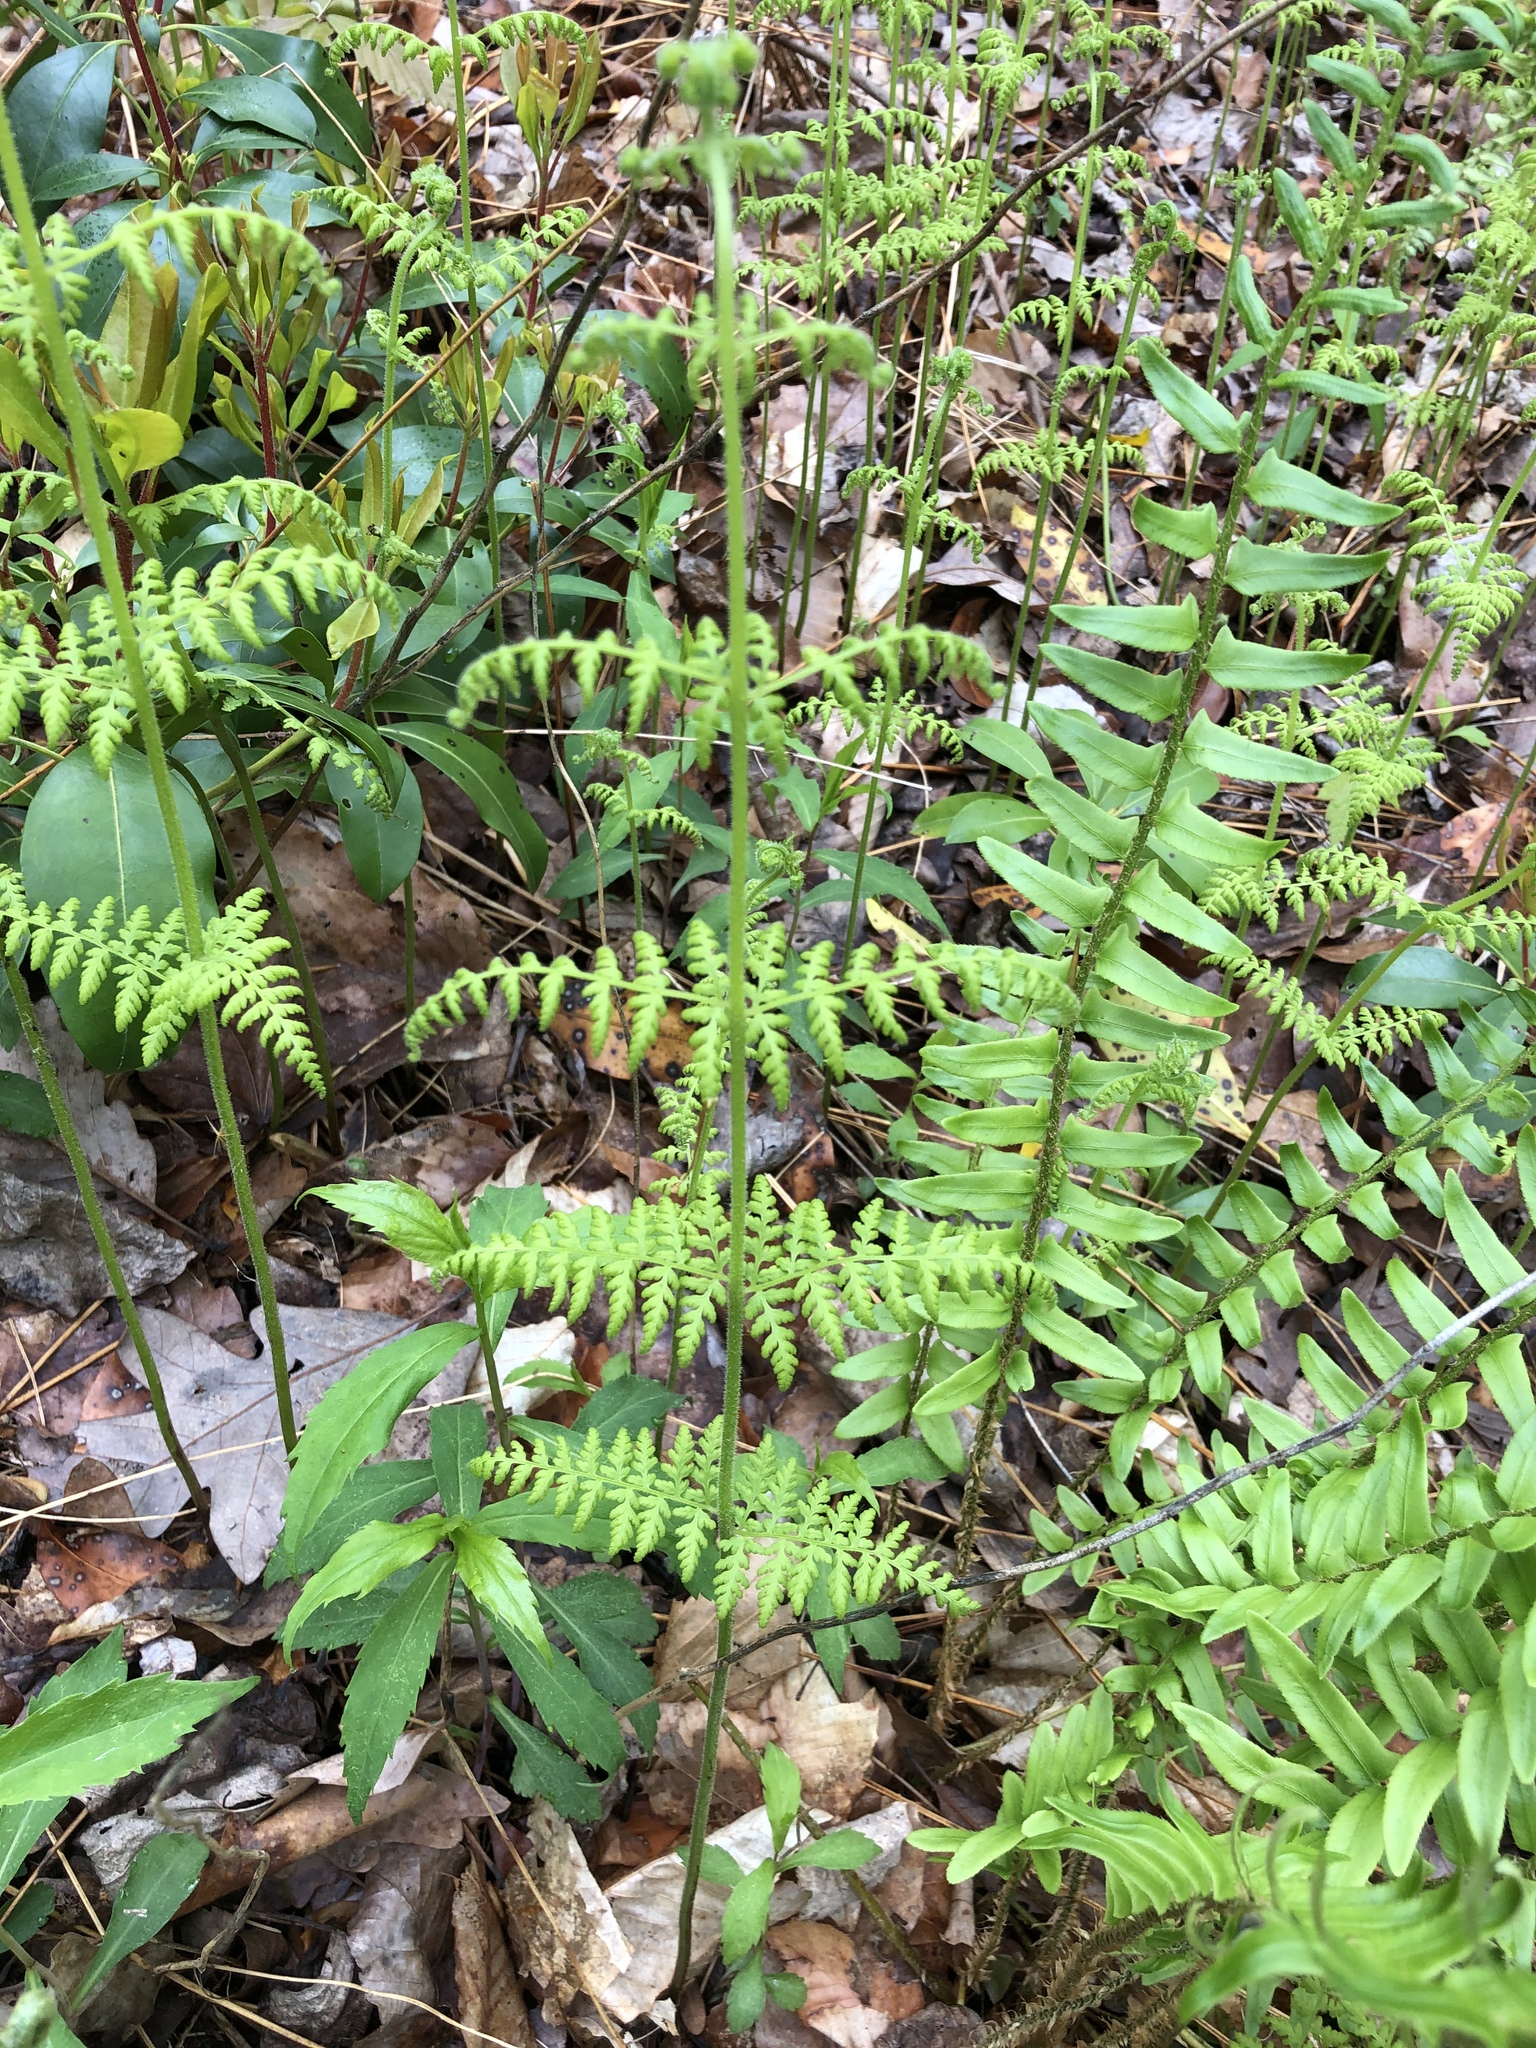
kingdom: Plantae
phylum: Tracheophyta
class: Polypodiopsida
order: Polypodiales
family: Dennstaedtiaceae
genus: Sitobolium
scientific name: Sitobolium punctilobum
